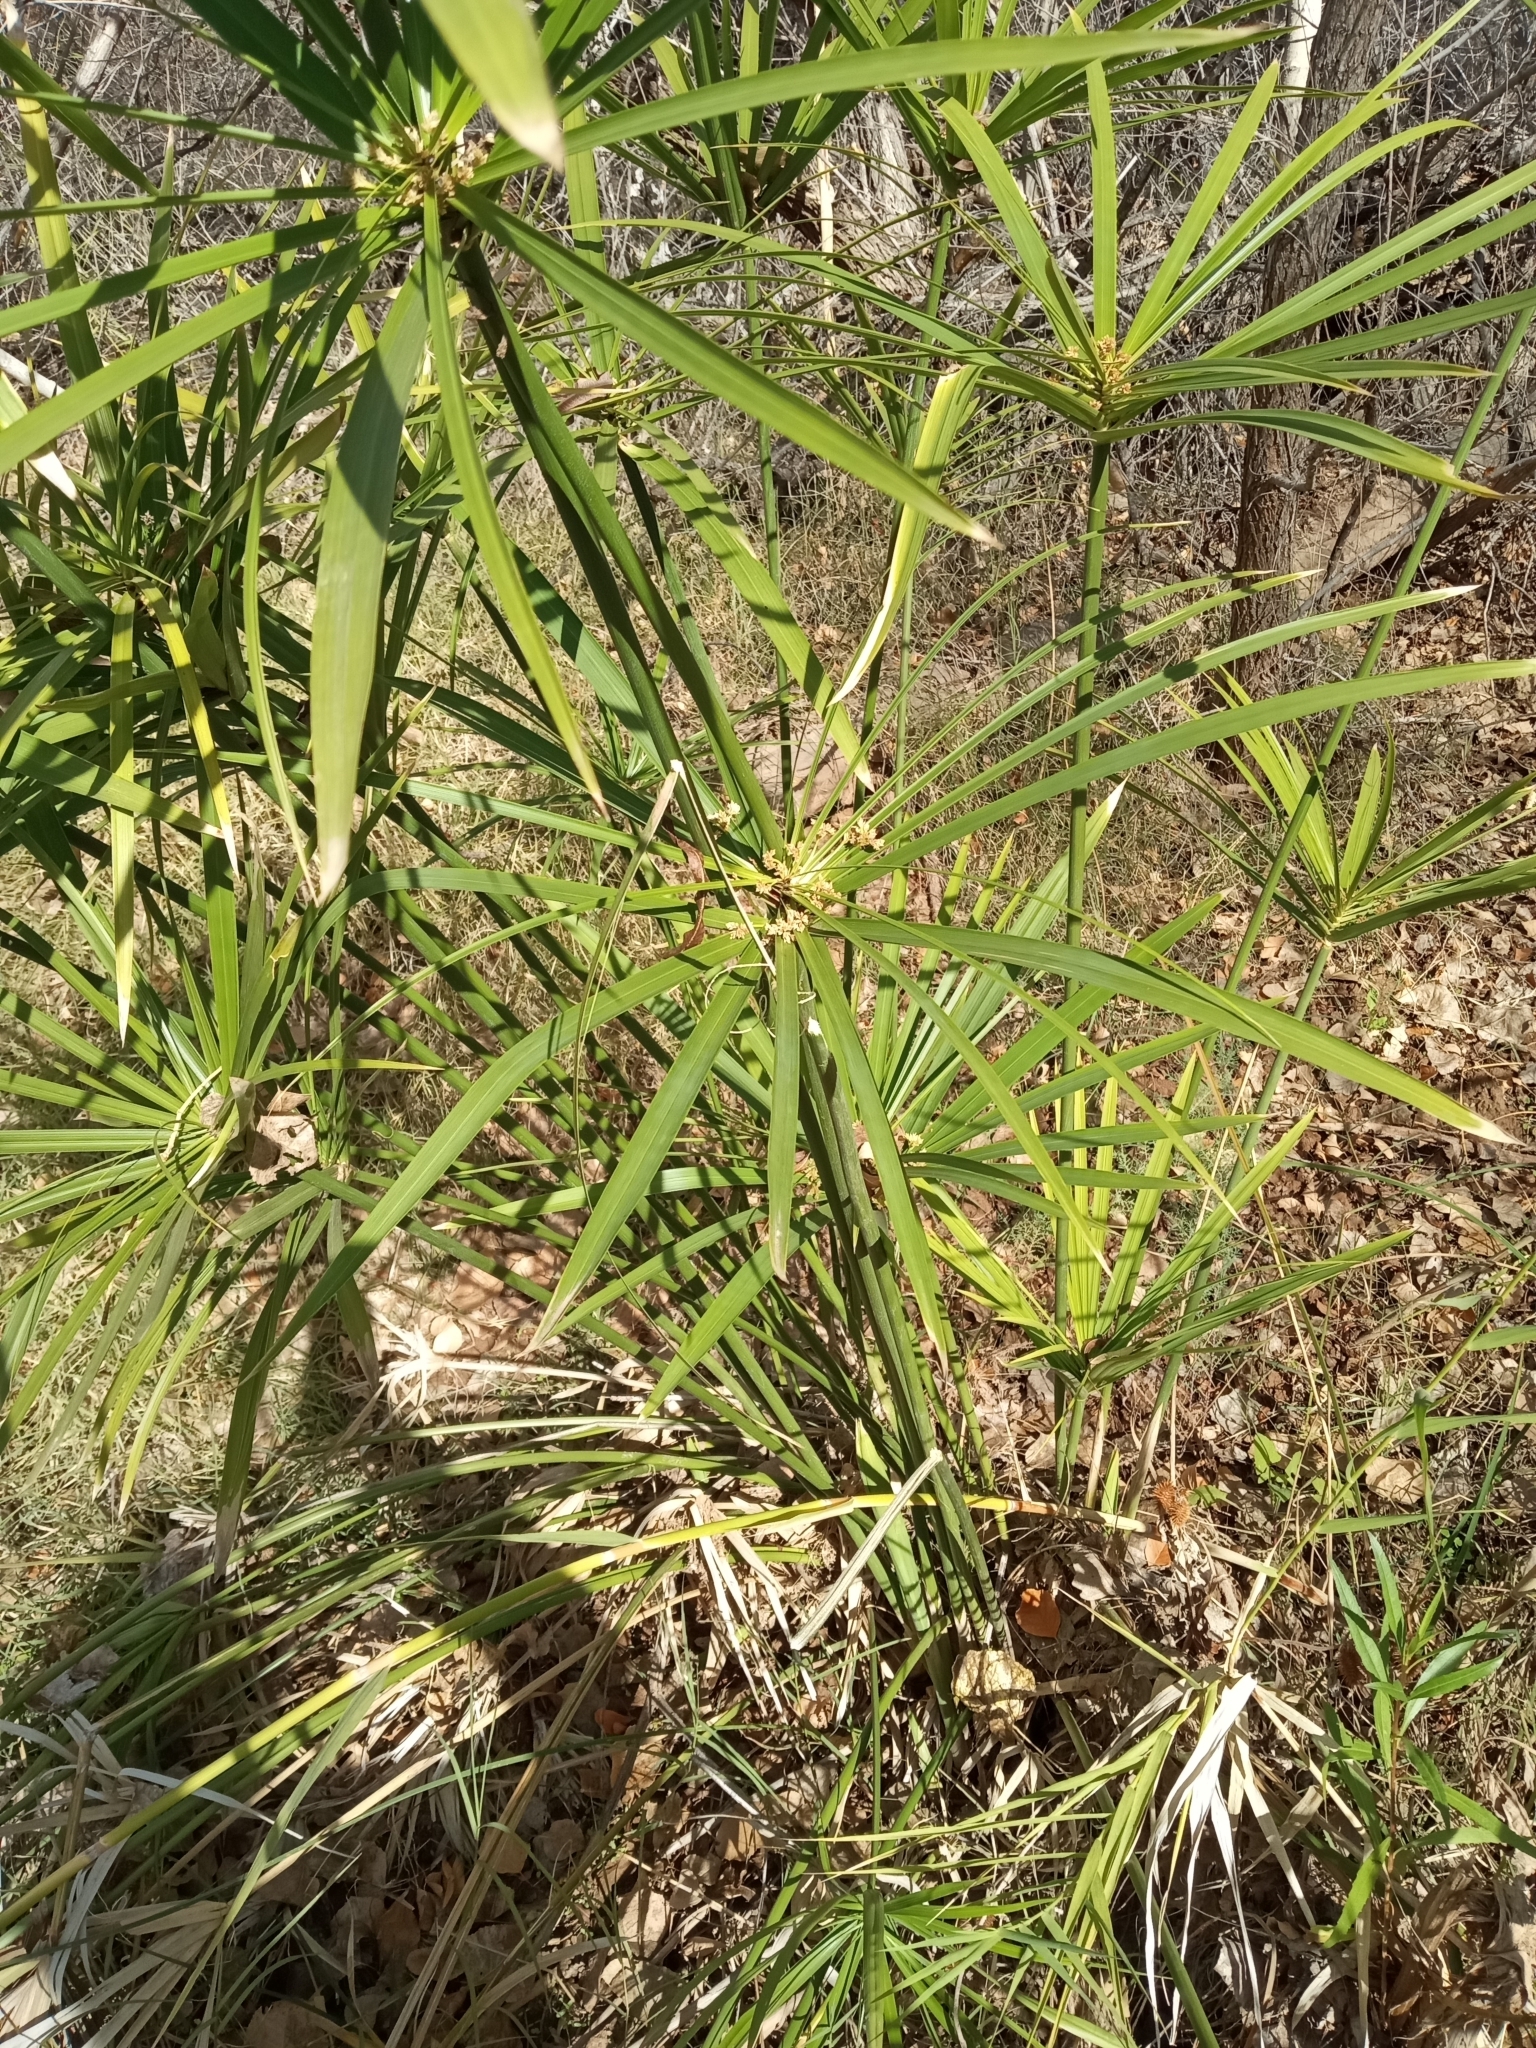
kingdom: Plantae
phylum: Tracheophyta
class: Liliopsida
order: Poales
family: Cyperaceae
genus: Cyperus
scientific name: Cyperus alternifolius
